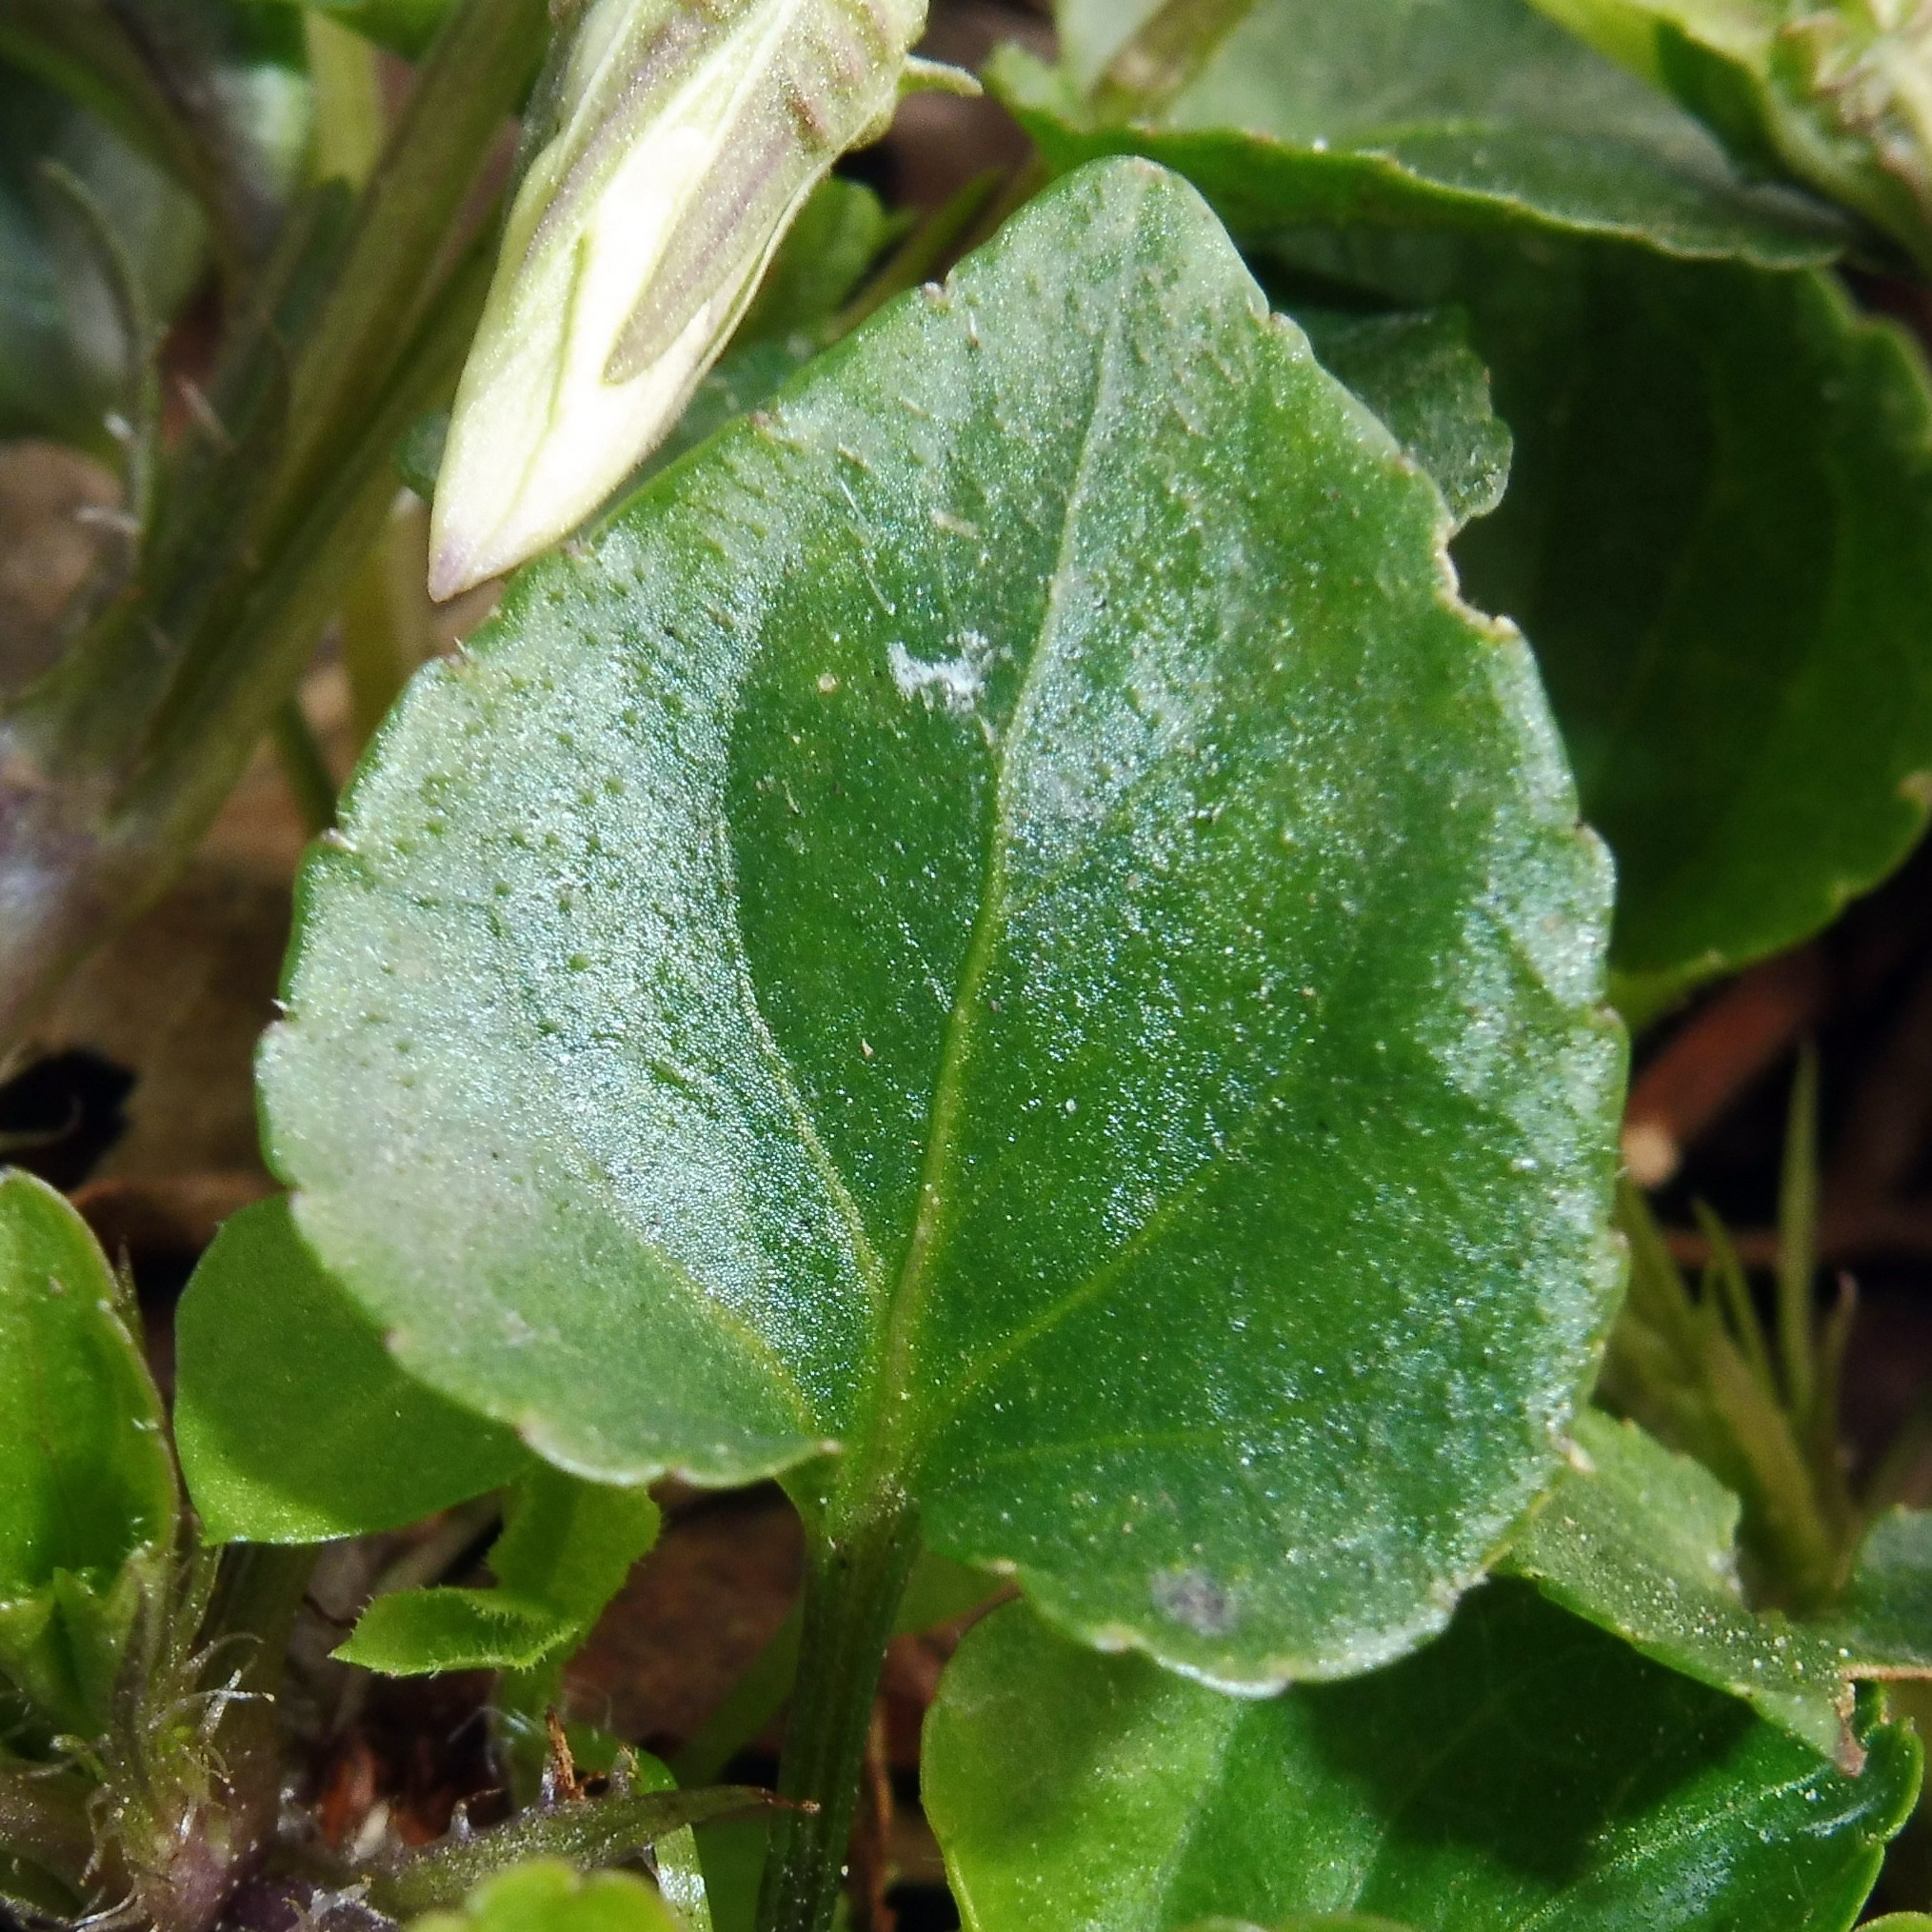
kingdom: Plantae
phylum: Tracheophyta
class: Magnoliopsida
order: Malpighiales
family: Violaceae
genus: Viola
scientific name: Viola riviniana
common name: Common dog-violet
